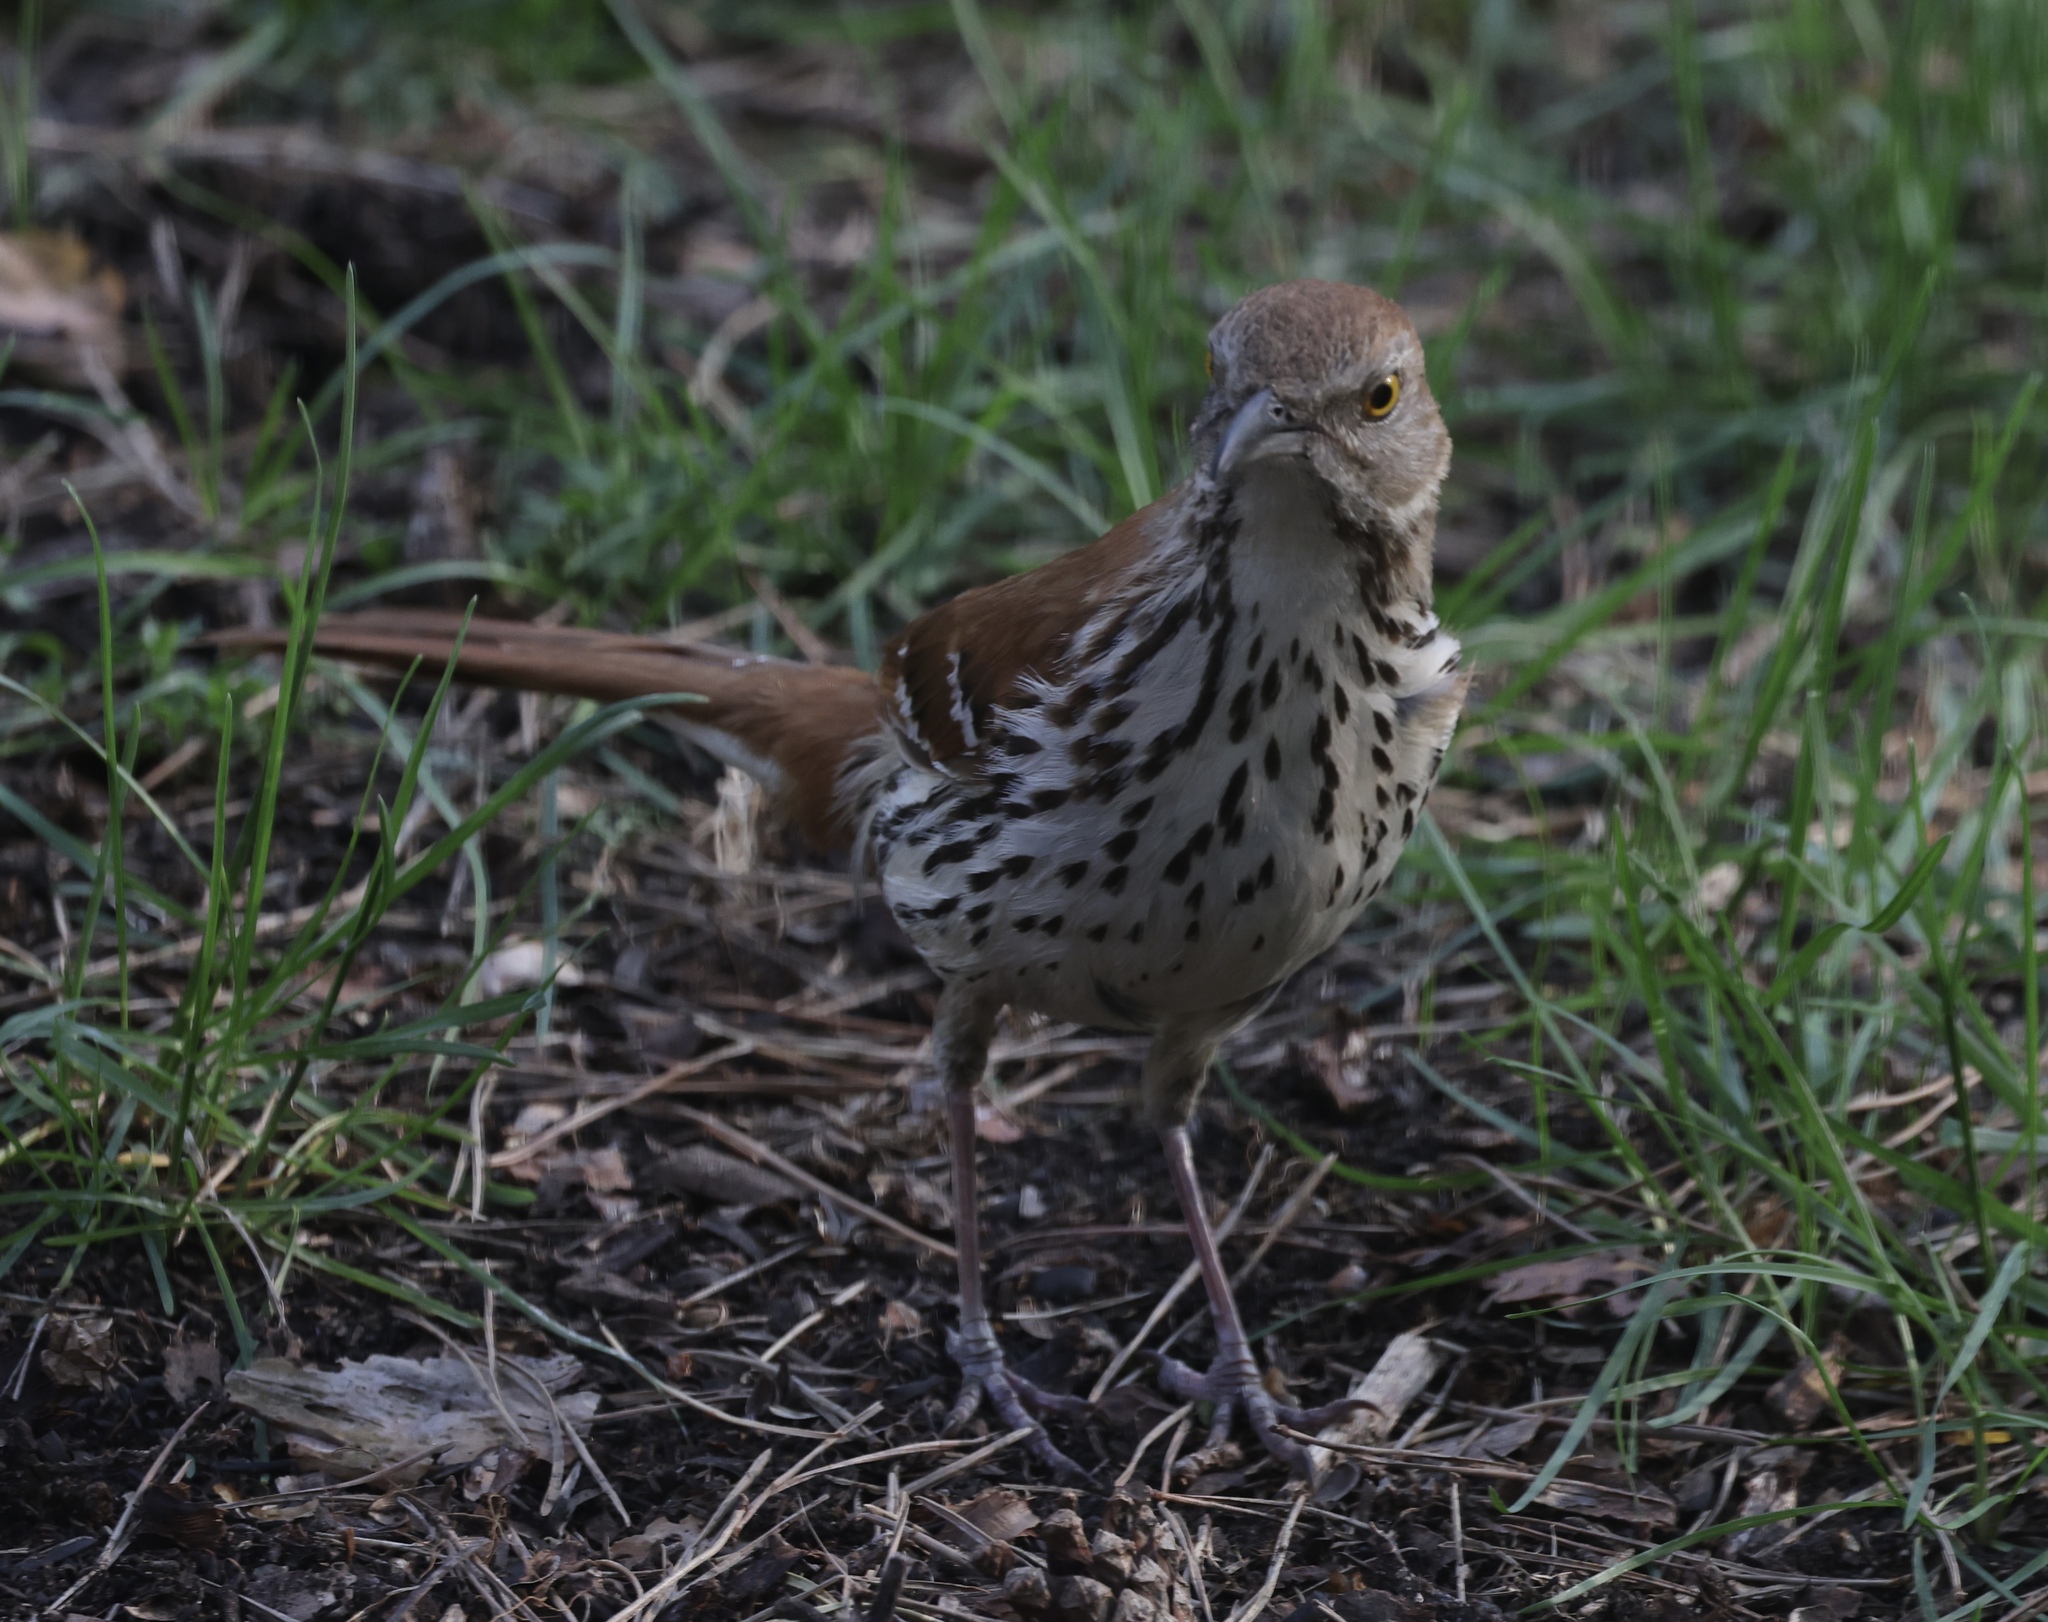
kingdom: Animalia
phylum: Chordata
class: Aves
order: Passeriformes
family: Mimidae
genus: Toxostoma
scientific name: Toxostoma rufum
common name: Brown thrasher
